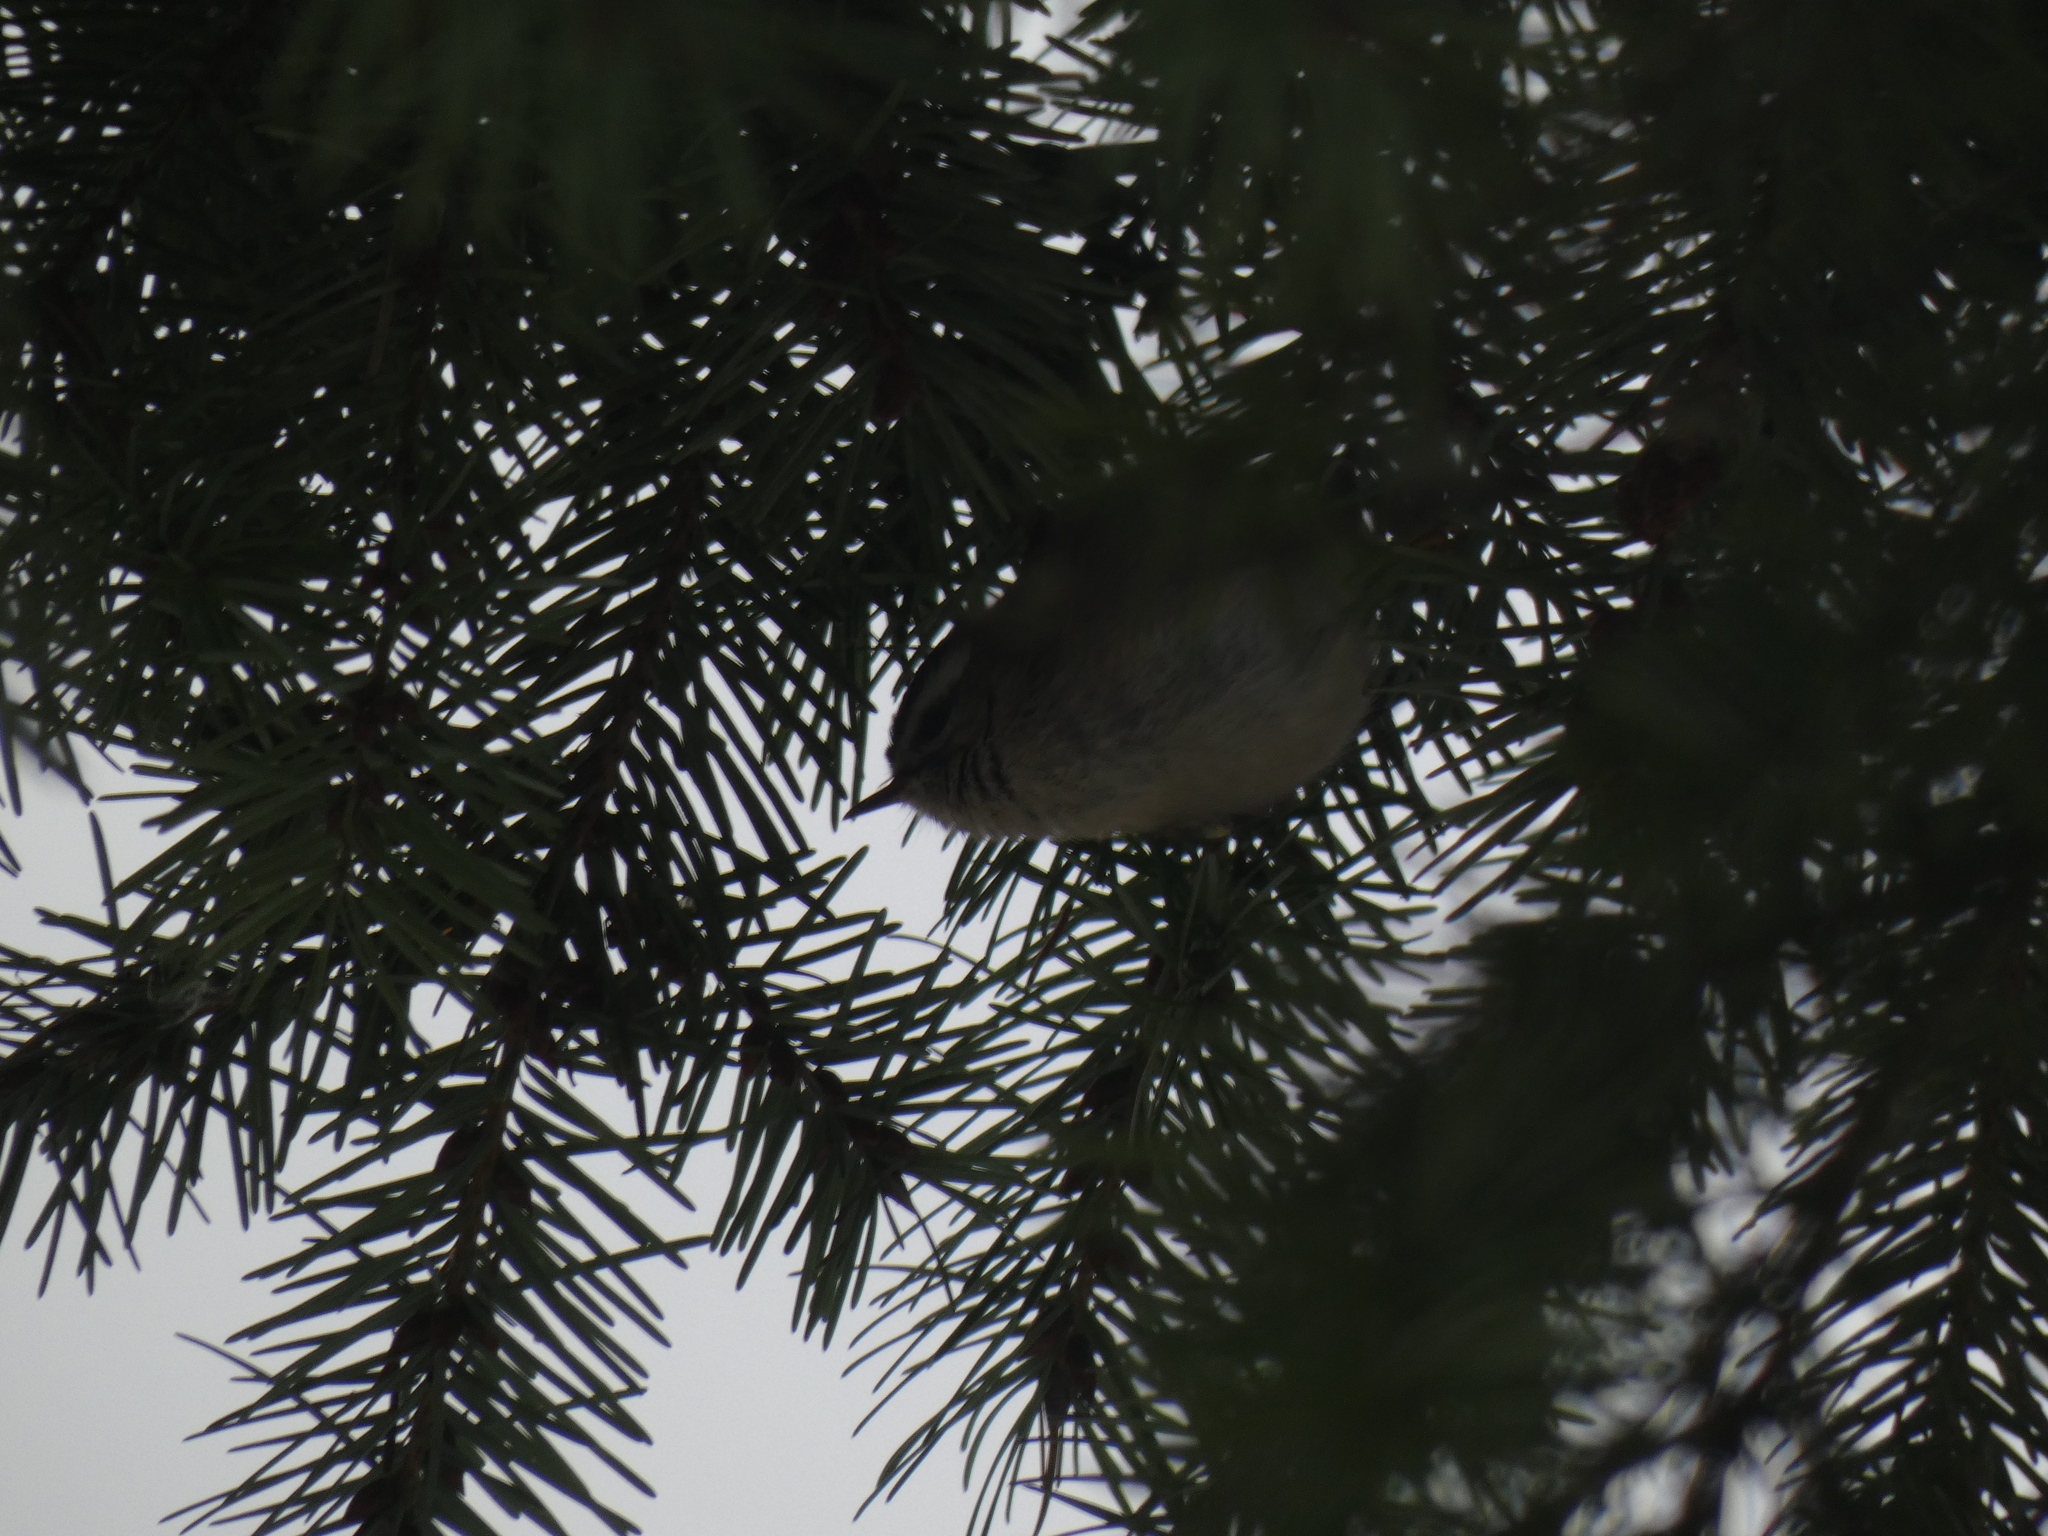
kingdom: Animalia
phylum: Chordata
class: Aves
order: Passeriformes
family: Regulidae
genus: Regulus
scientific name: Regulus satrapa
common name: Golden-crowned kinglet
